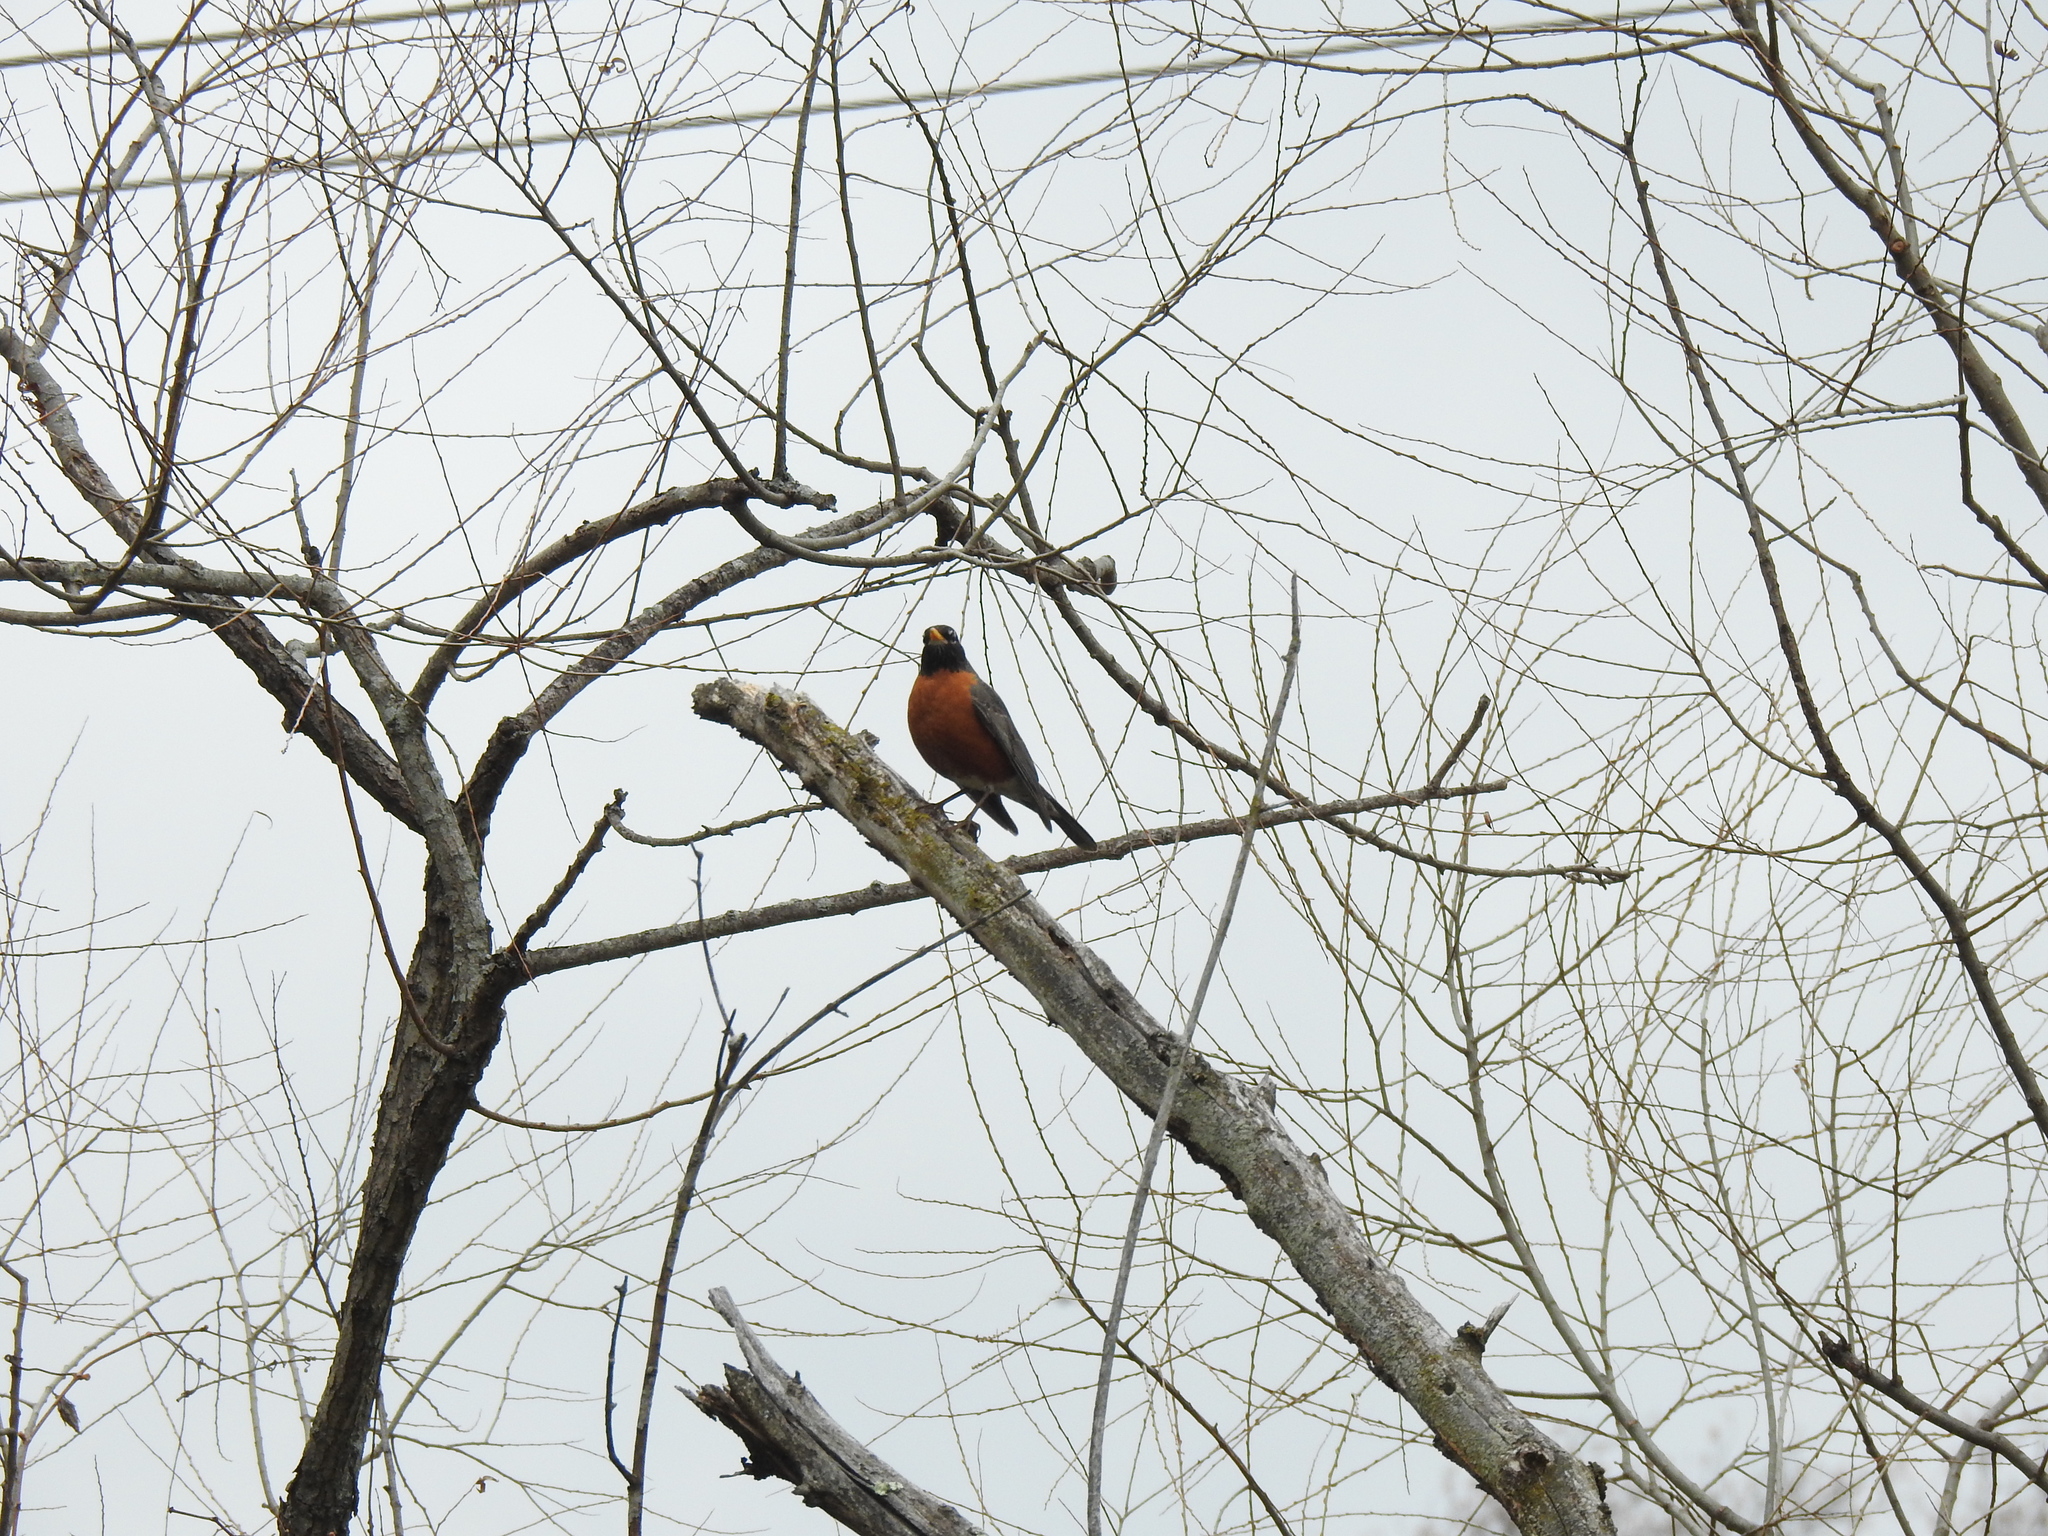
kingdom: Animalia
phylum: Chordata
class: Aves
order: Passeriformes
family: Turdidae
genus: Turdus
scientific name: Turdus migratorius
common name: American robin
